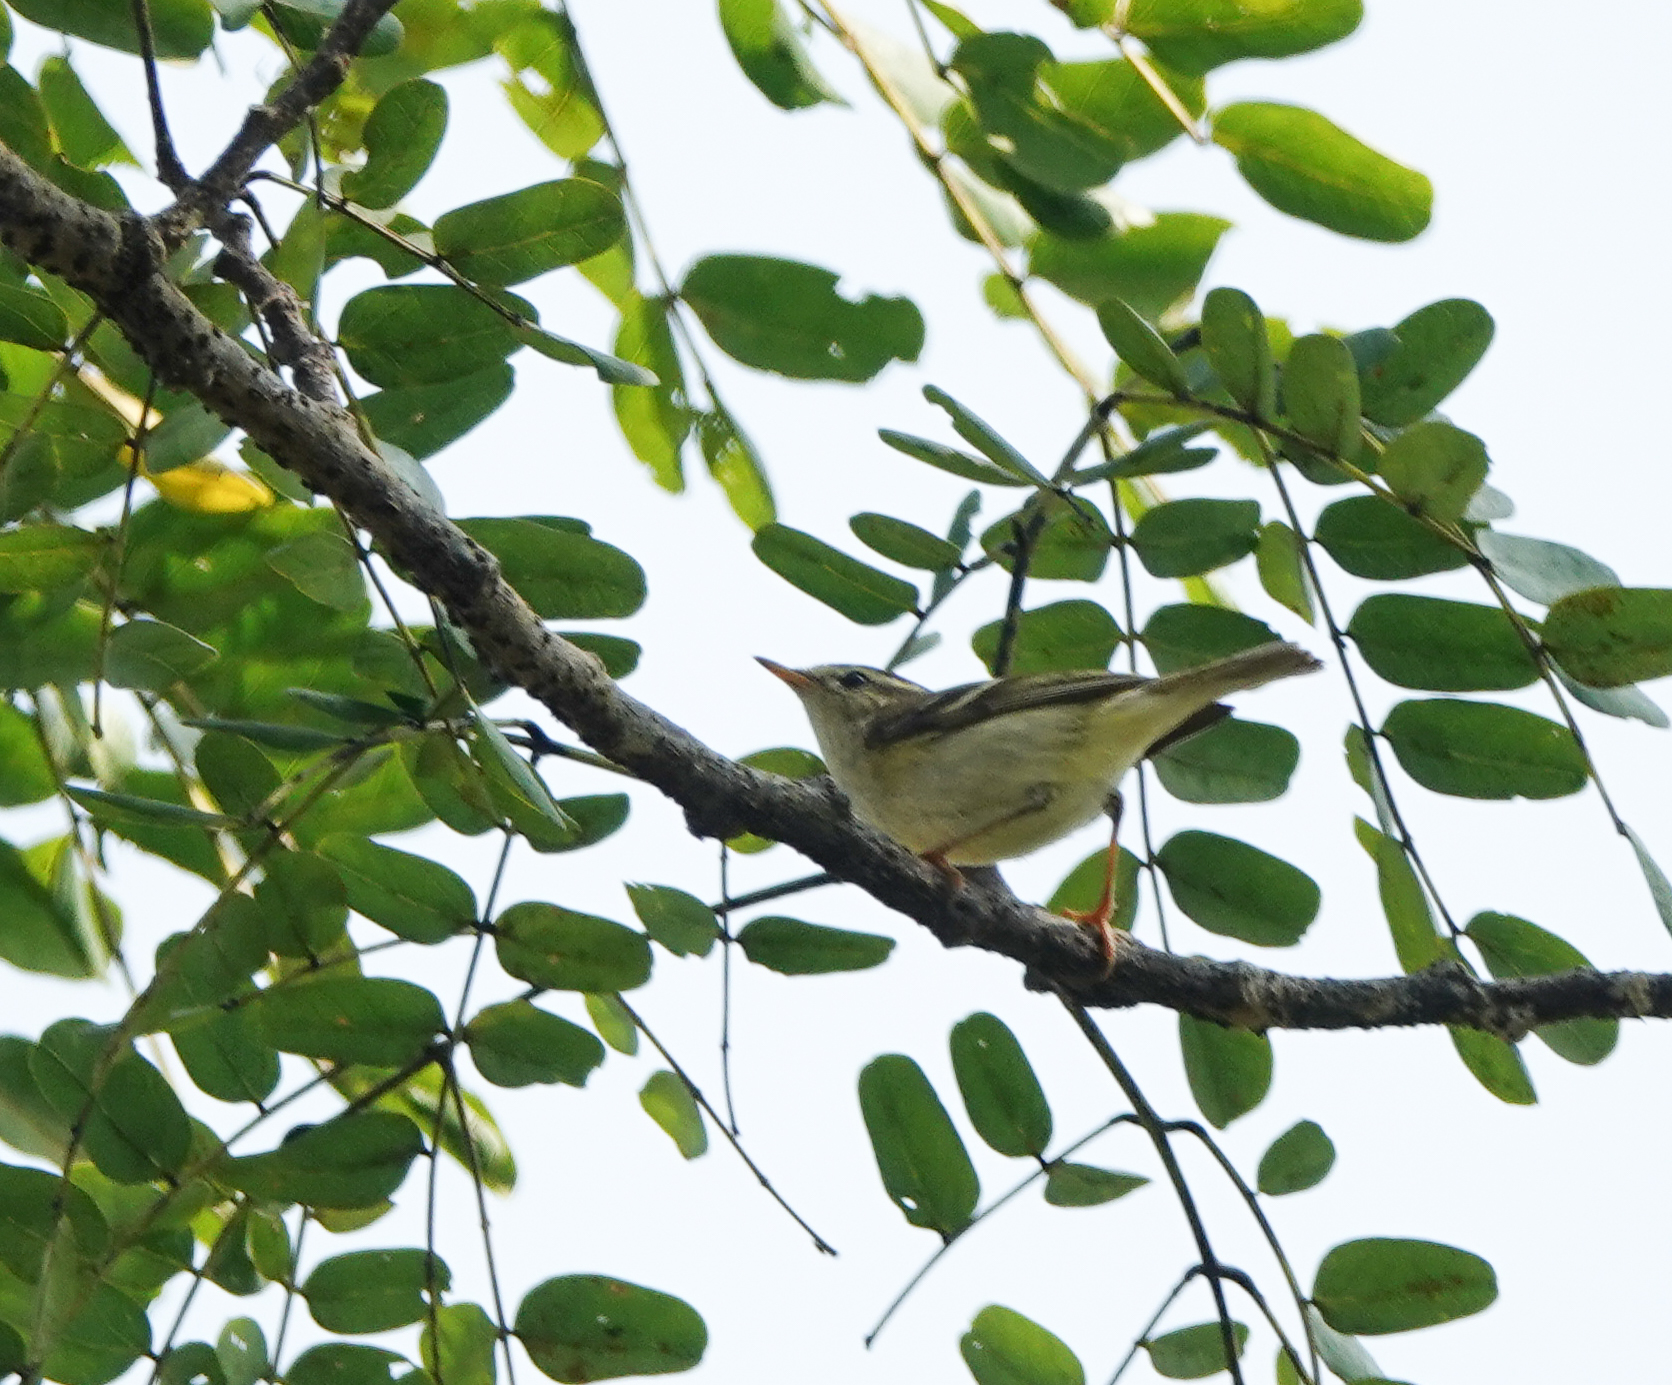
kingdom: Animalia
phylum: Chordata
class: Aves
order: Passeriformes
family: Phylloscopidae
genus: Phylloscopus
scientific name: Phylloscopus trochiloides
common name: Greenish warbler
